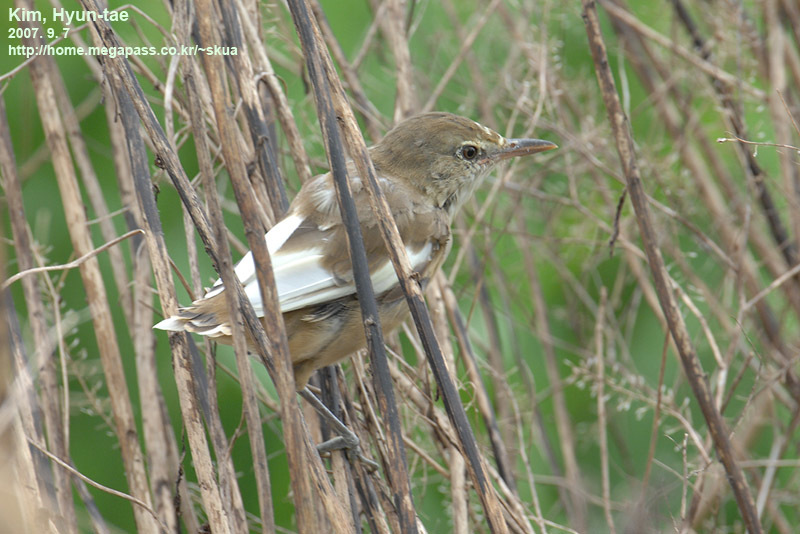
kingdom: Animalia
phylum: Chordata
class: Aves
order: Passeriformes
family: Acrocephalidae
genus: Acrocephalus
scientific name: Acrocephalus orientalis
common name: Oriental reed warbler
